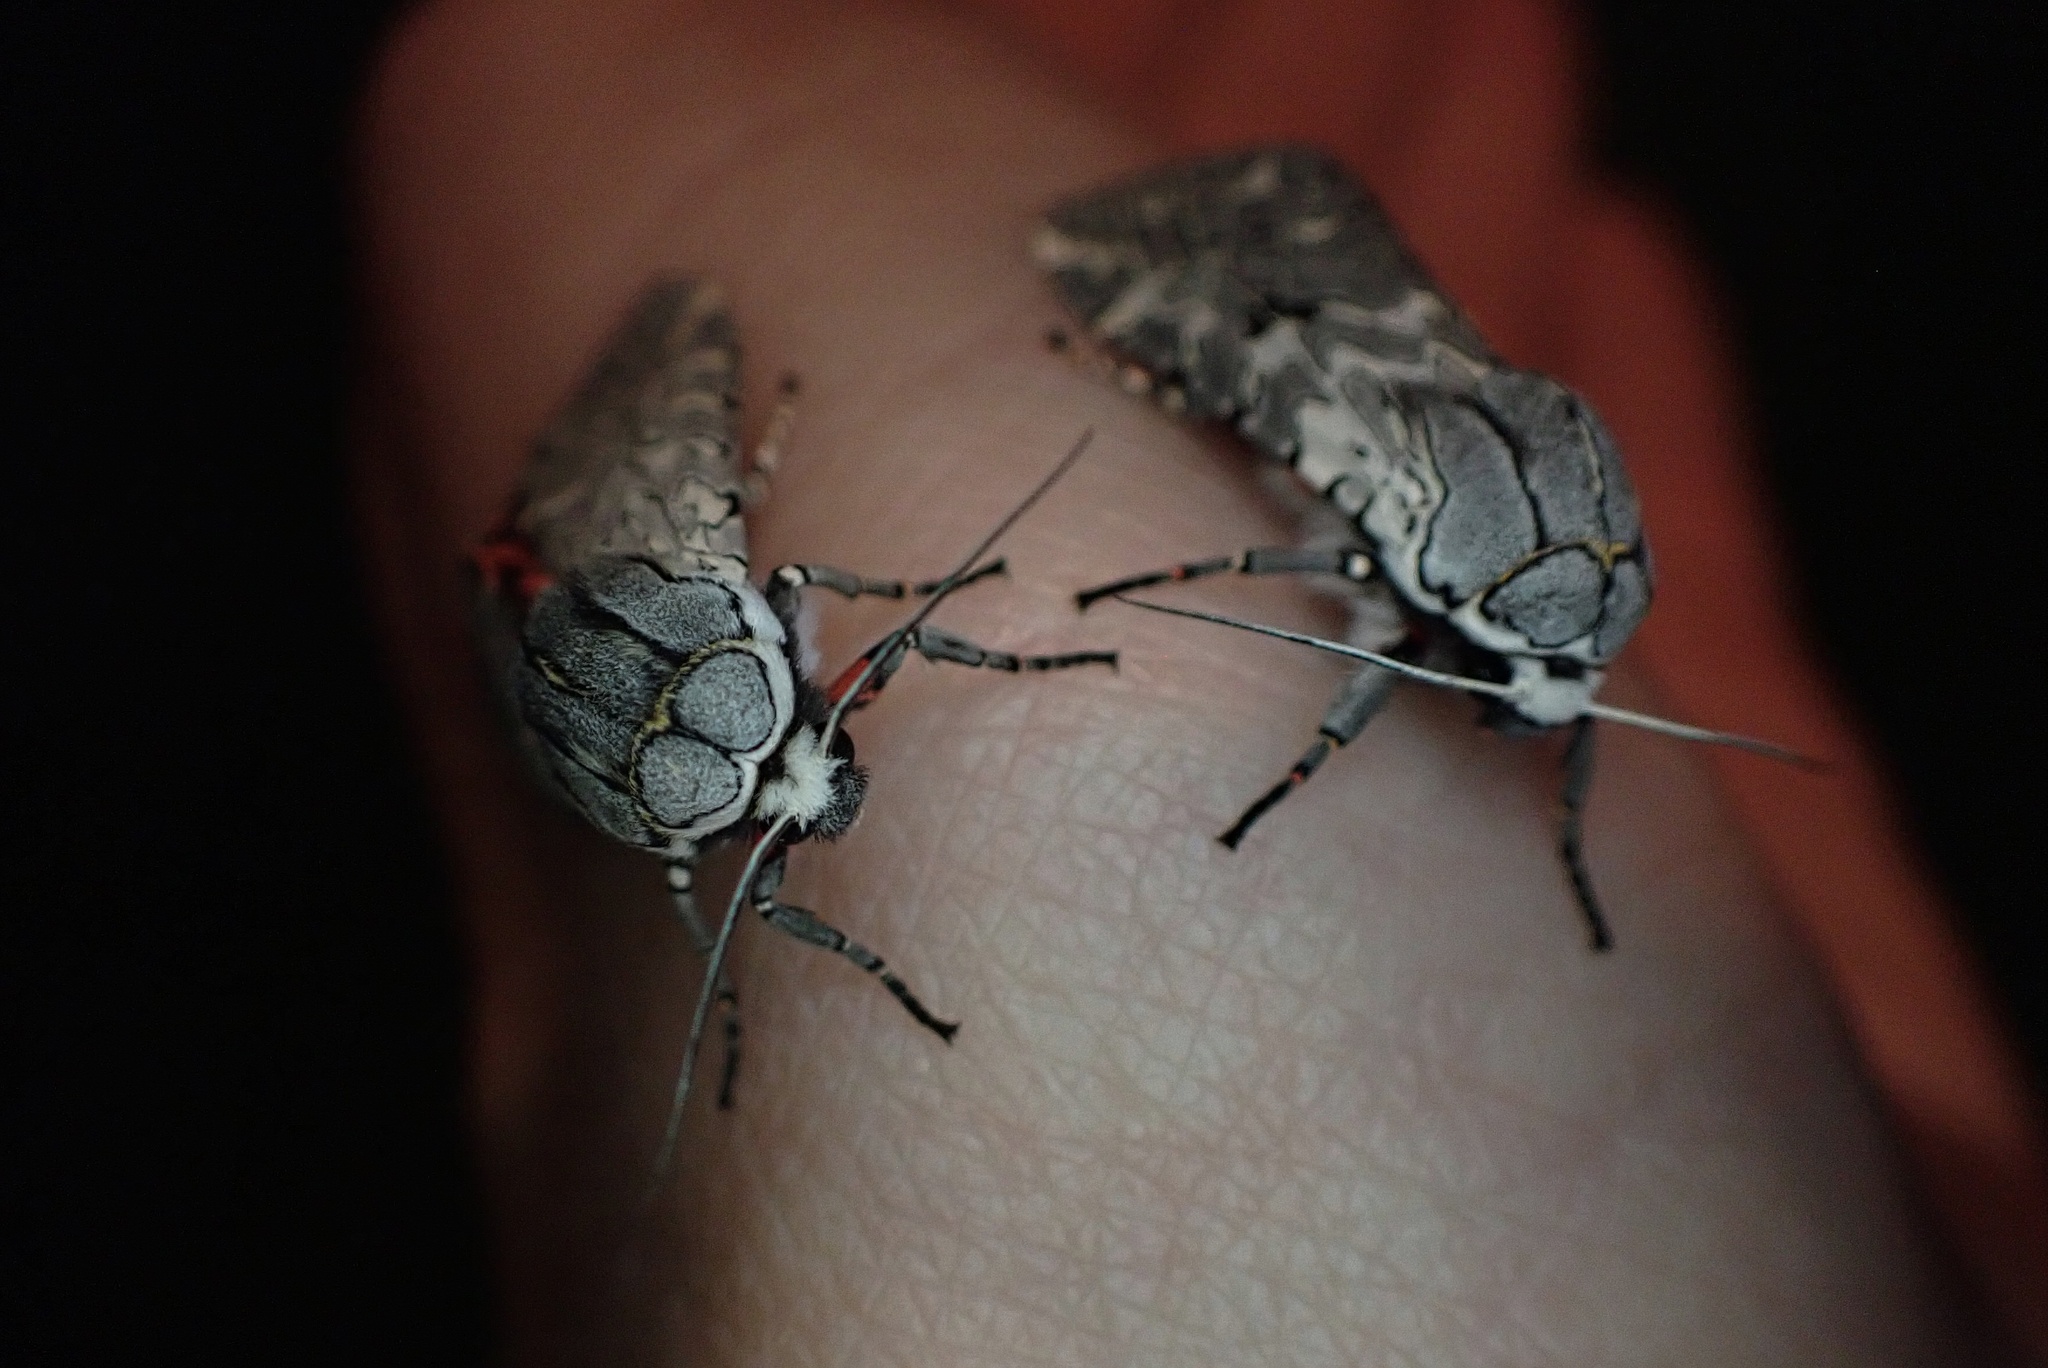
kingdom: Animalia
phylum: Arthropoda
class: Insecta
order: Lepidoptera
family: Erebidae
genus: Arachnis
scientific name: Arachnis picta
